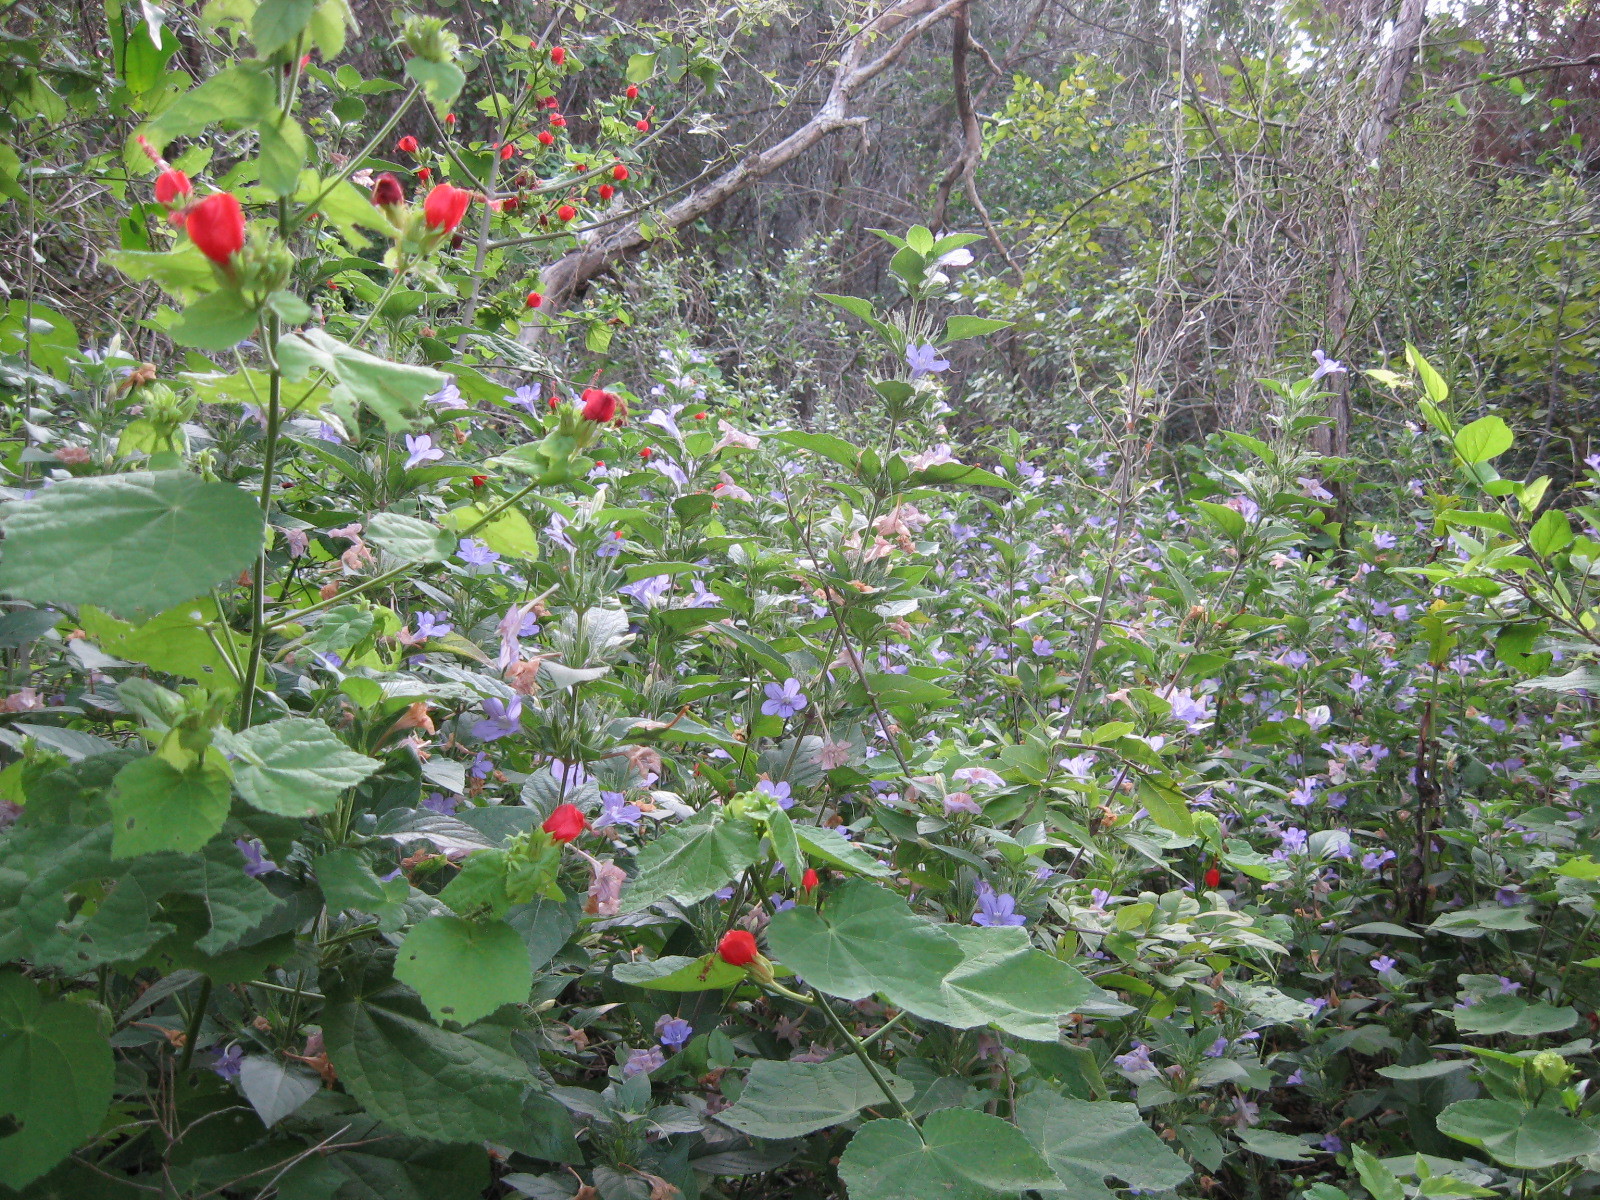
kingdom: Plantae
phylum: Tracheophyta
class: Magnoliopsida
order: Malvales
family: Malvaceae
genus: Malvaviscus
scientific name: Malvaviscus arboreus
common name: Wax mallow
